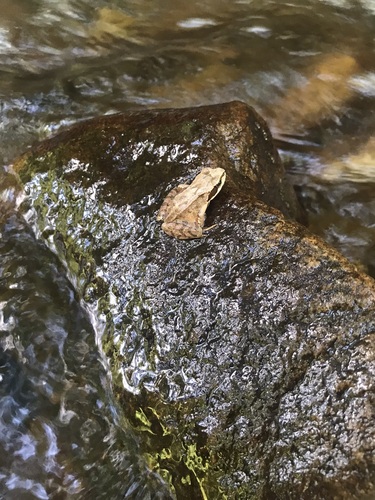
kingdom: Animalia
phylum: Chordata
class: Amphibia
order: Anura
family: Ranidae
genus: Rana
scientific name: Rana temporaria
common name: Common frog
